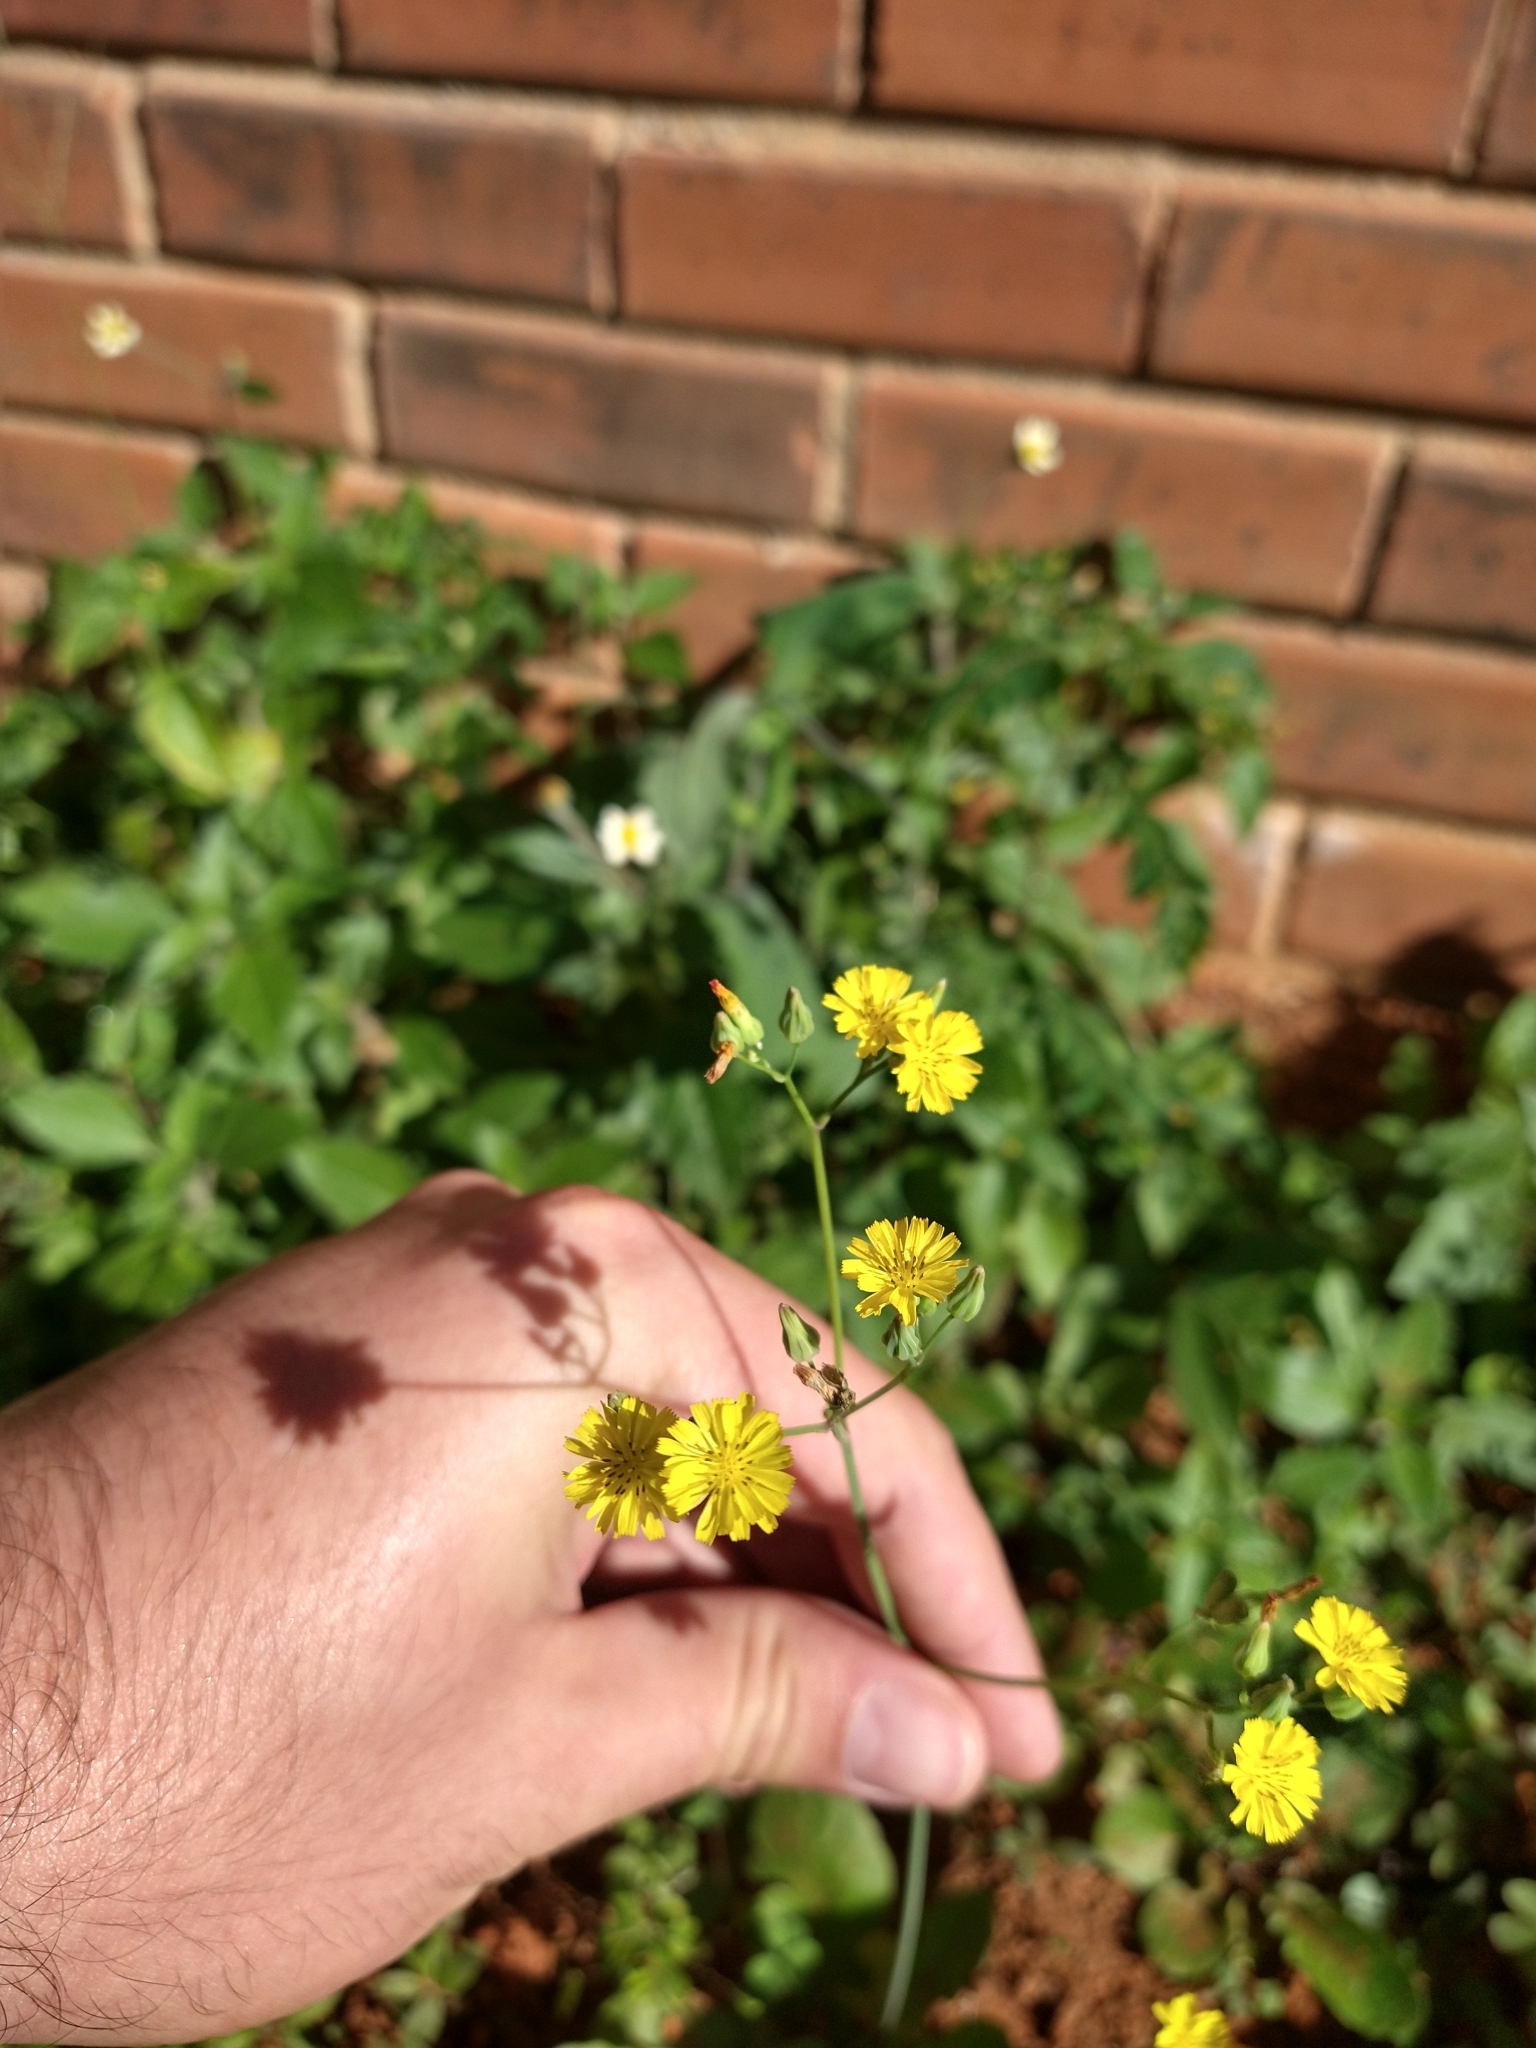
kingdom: Plantae
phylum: Tracheophyta
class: Magnoliopsida
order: Asterales
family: Asteraceae
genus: Youngia
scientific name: Youngia japonica
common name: Oriental false hawksbeard
